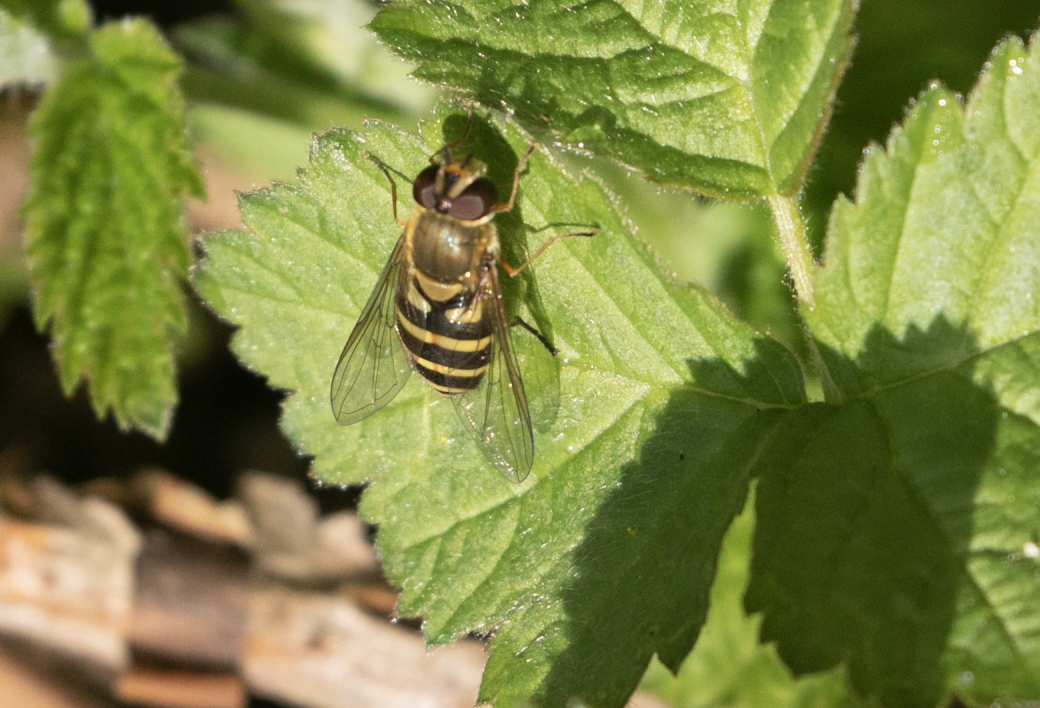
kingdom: Animalia
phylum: Arthropoda
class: Insecta
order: Diptera
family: Syrphidae
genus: Syrphus
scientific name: Syrphus
